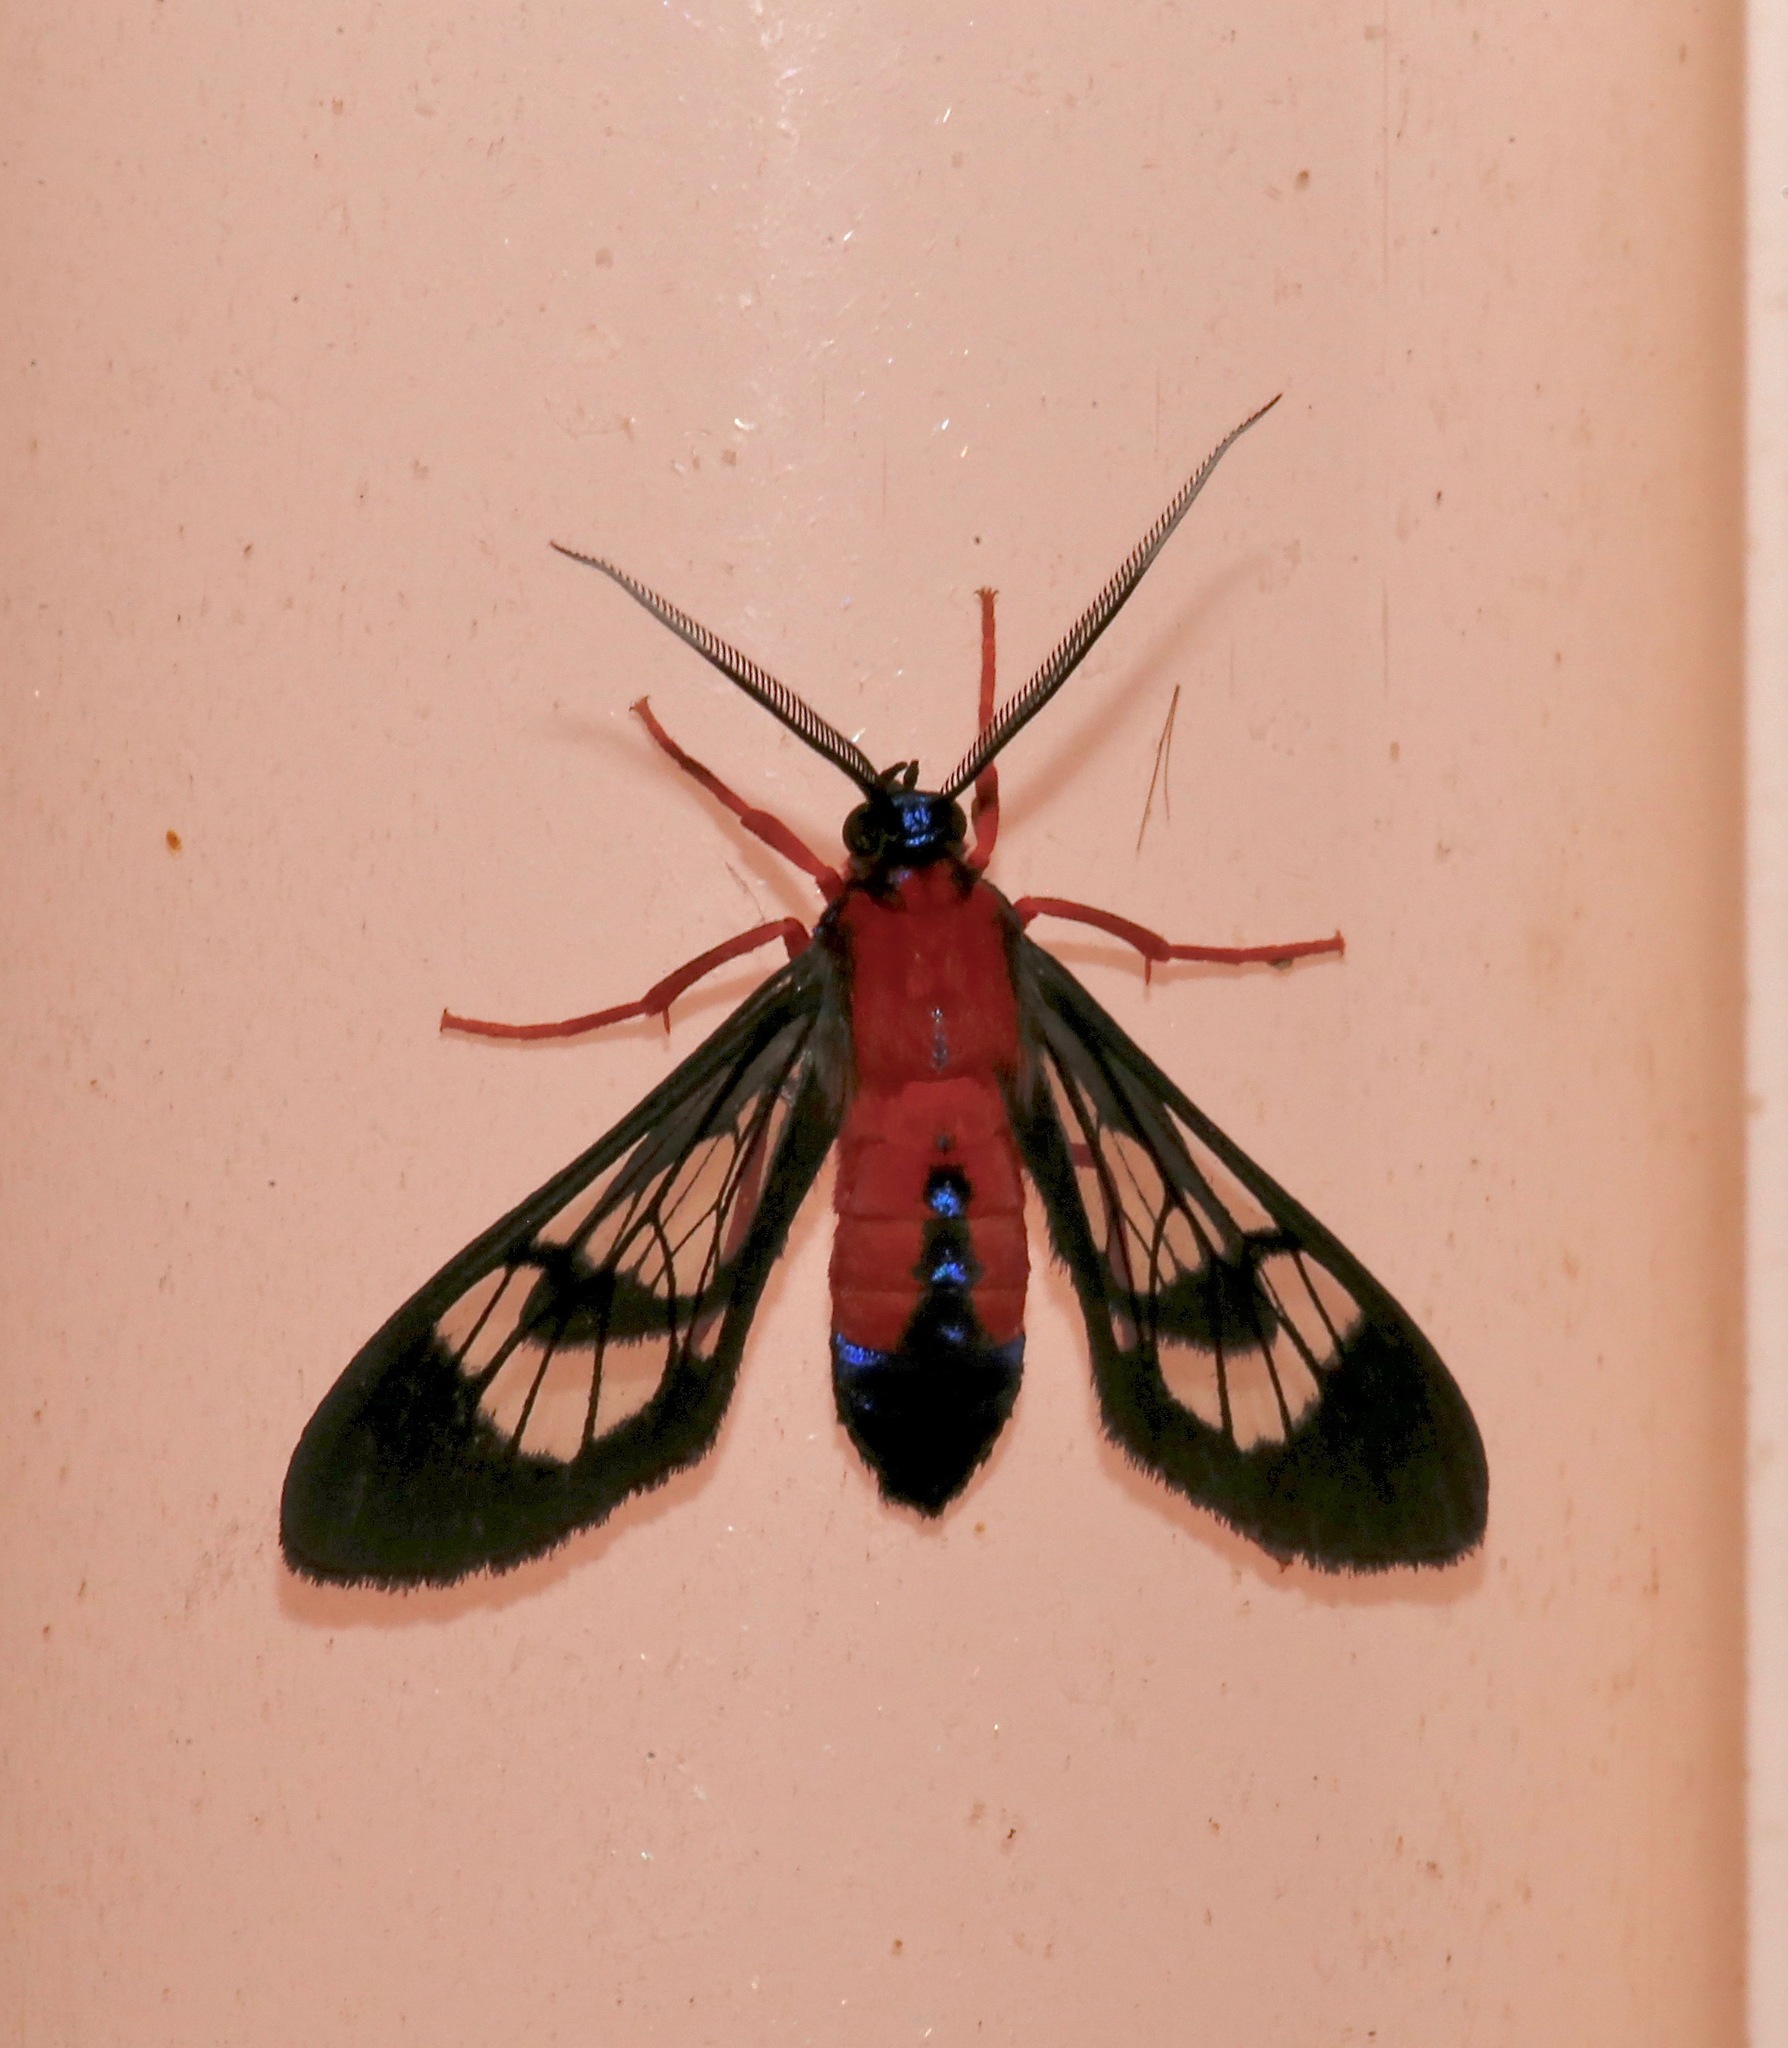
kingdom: Animalia
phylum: Arthropoda
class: Insecta
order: Lepidoptera
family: Erebidae
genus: Cosmosoma
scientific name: Cosmosoma myrodora
